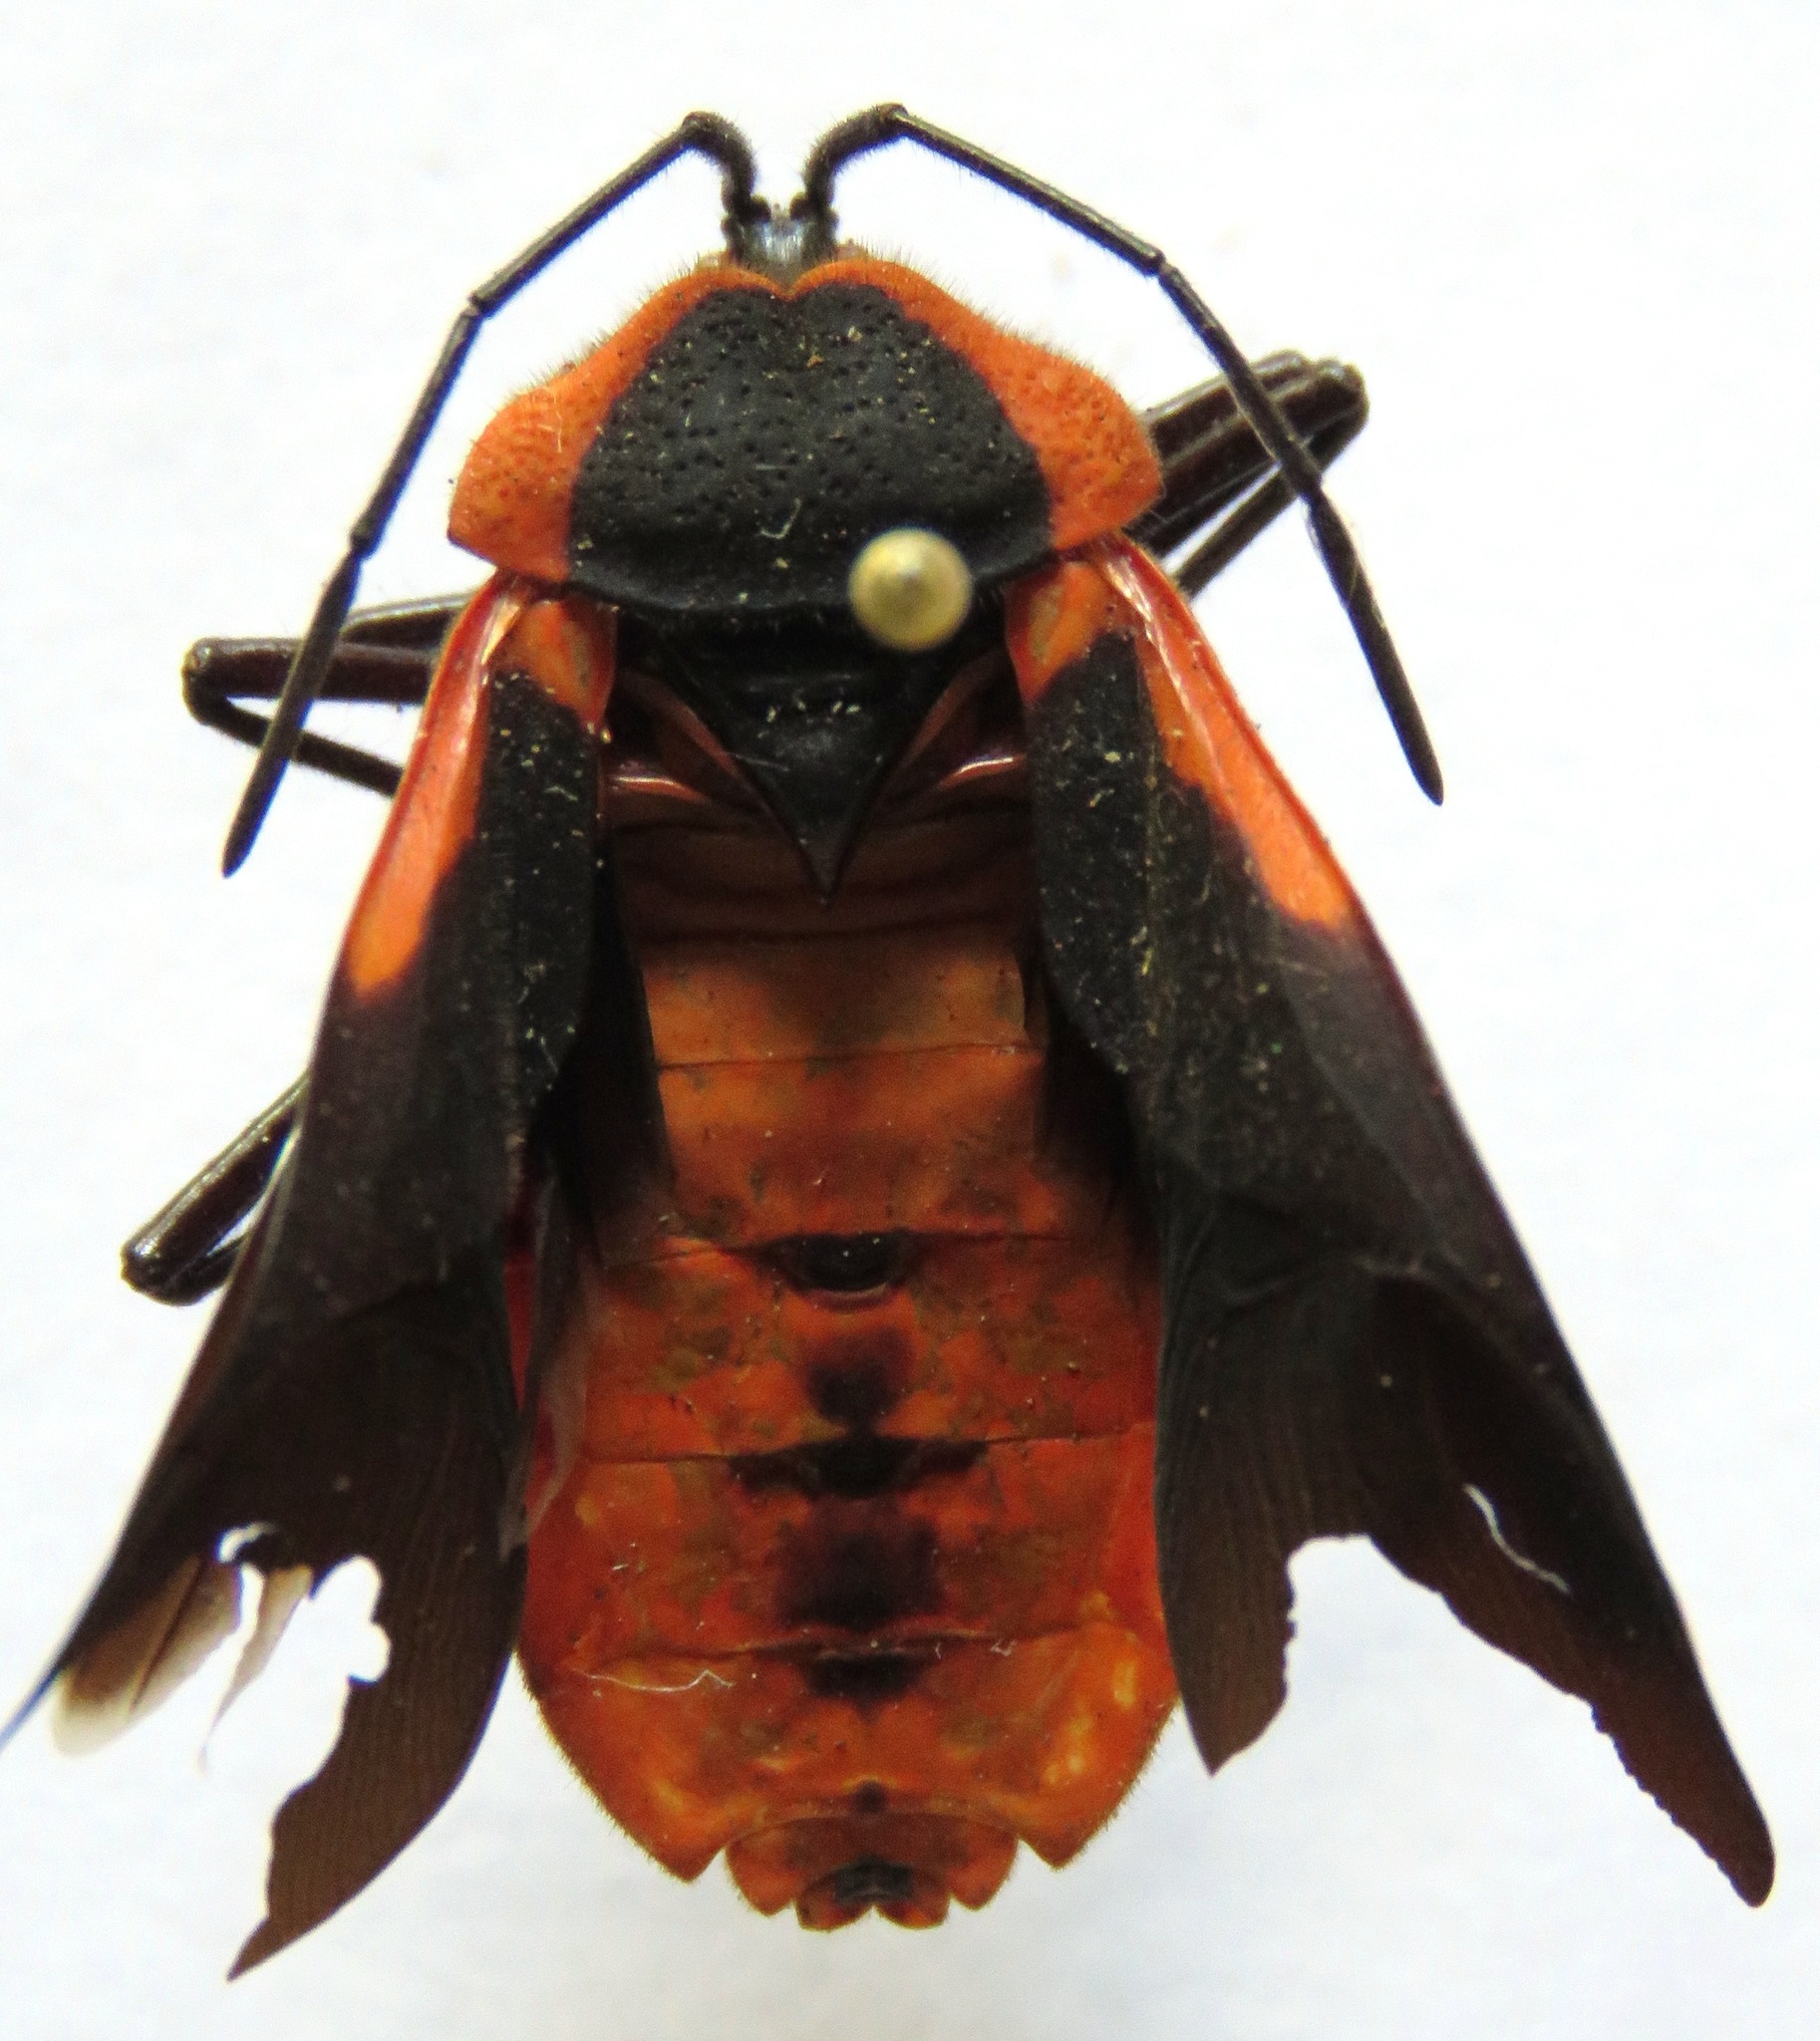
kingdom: Animalia
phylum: Arthropoda
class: Insecta
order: Hemiptera
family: Coreidae
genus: Sephina
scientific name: Sephina limbata
